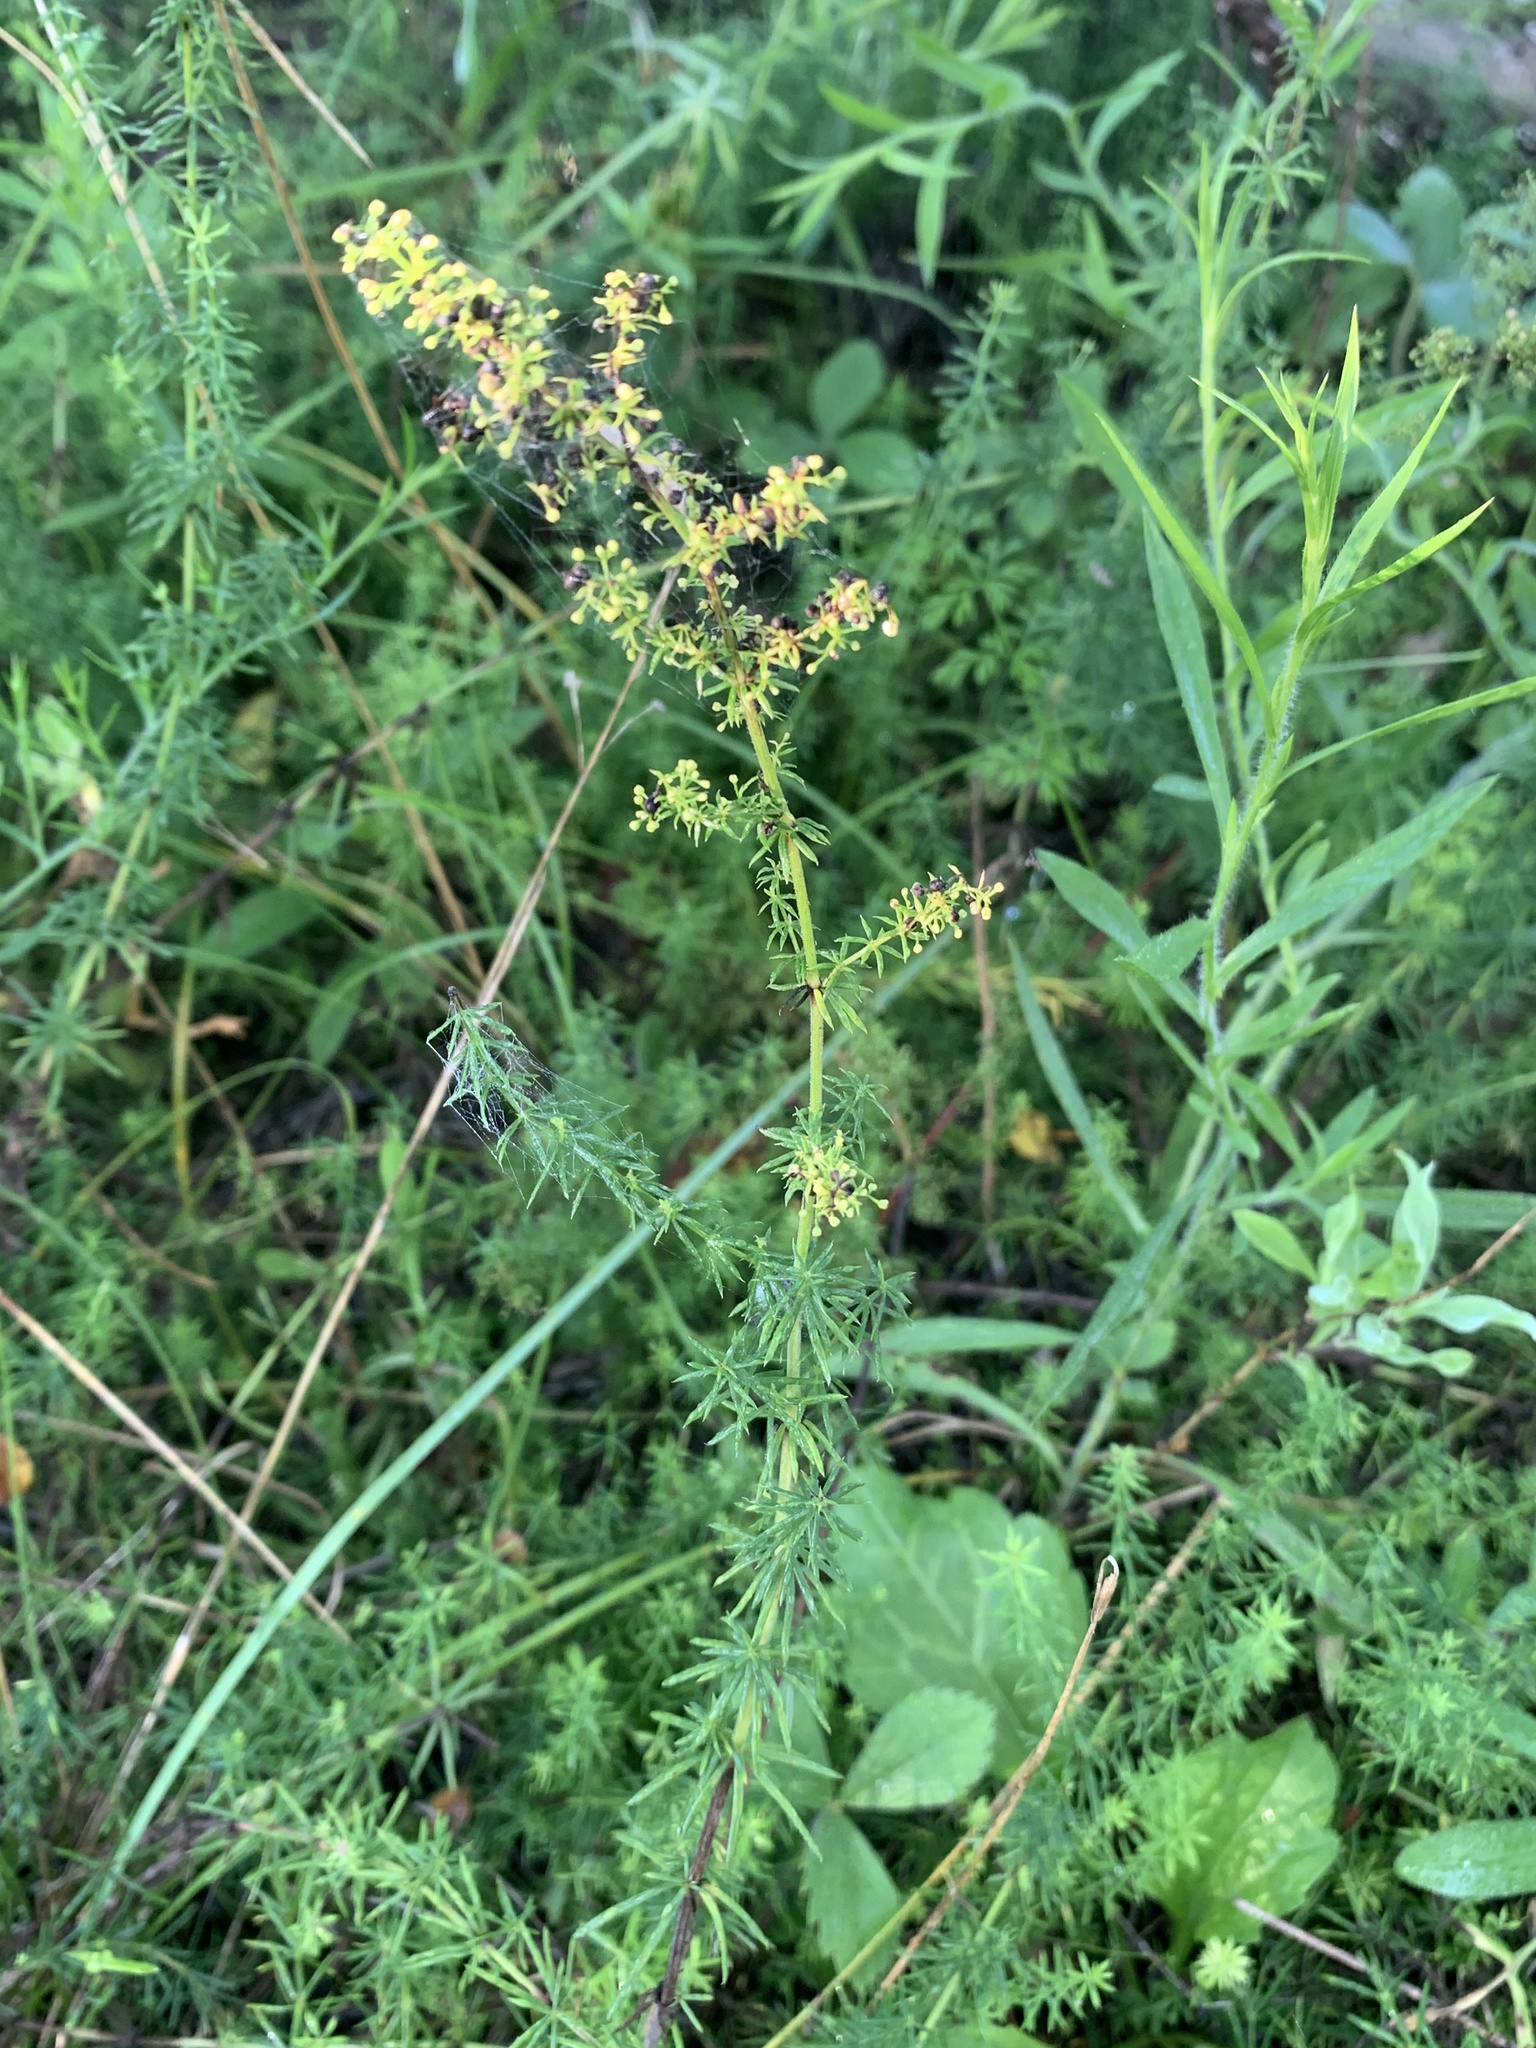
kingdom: Plantae
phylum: Tracheophyta
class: Magnoliopsida
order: Gentianales
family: Rubiaceae
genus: Galium
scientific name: Galium verum
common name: Lady's bedstraw
